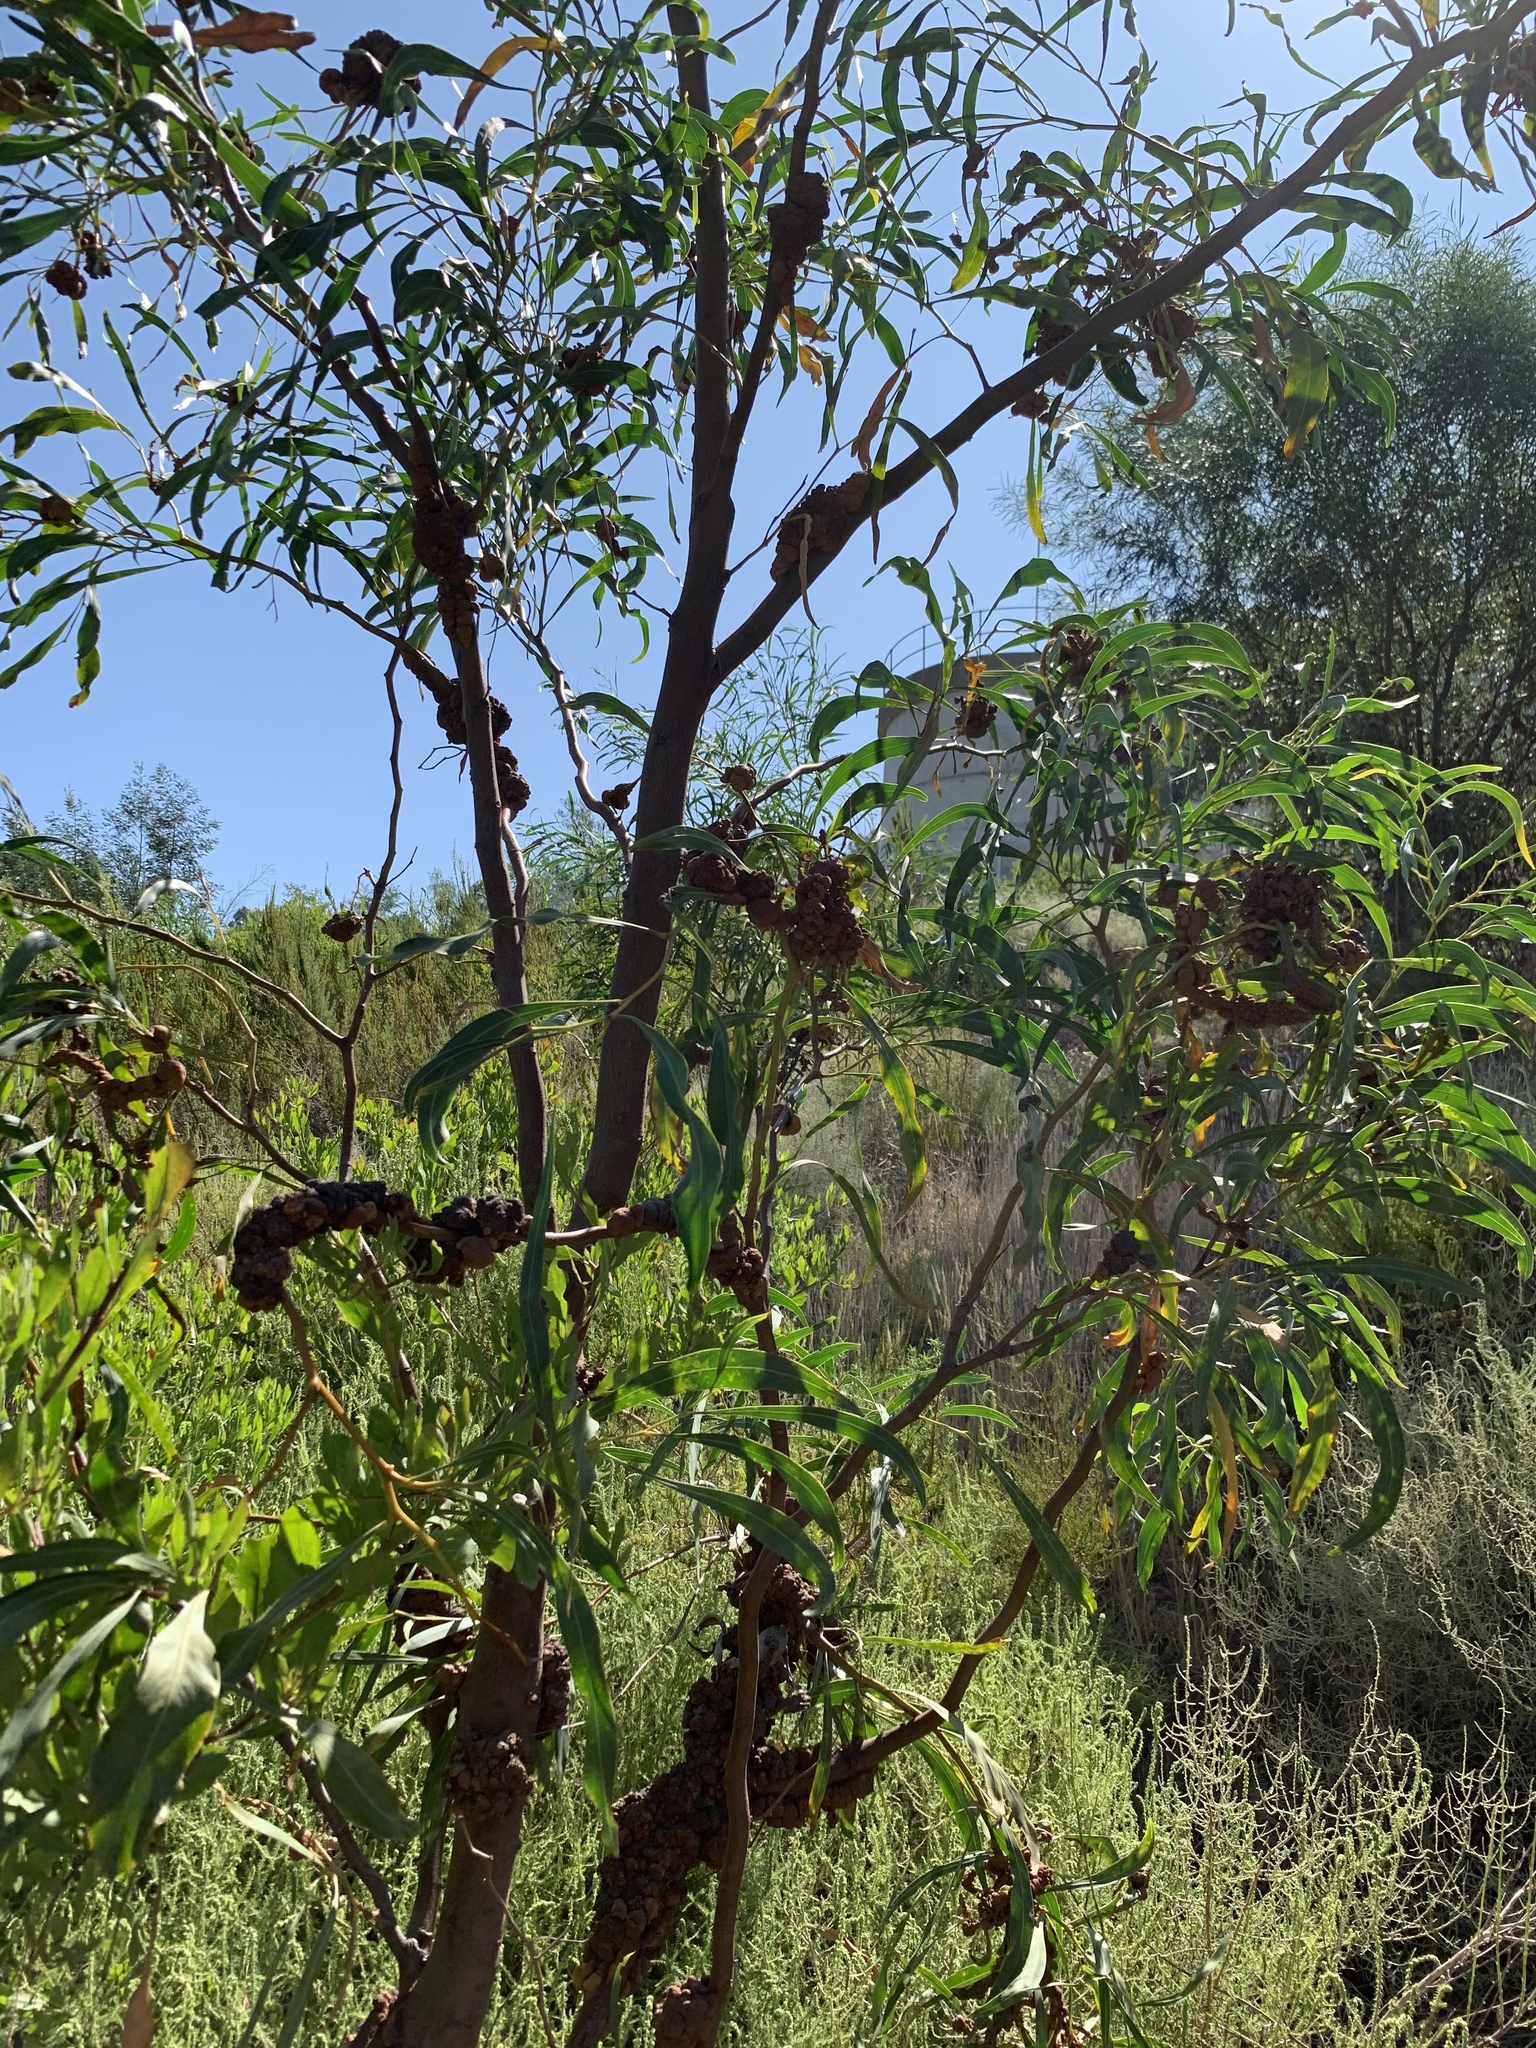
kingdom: Plantae
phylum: Tracheophyta
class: Magnoliopsida
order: Fabales
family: Fabaceae
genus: Acacia
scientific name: Acacia saligna
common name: Orange wattle
